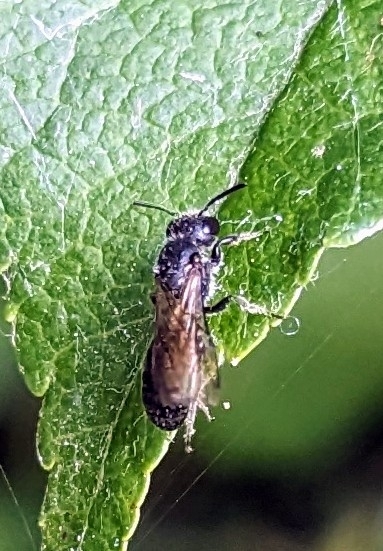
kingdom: Animalia
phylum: Arthropoda
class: Insecta
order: Hymenoptera
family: Megachilidae
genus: Chelostoma
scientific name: Chelostoma campanularum
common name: Small scissor bee
